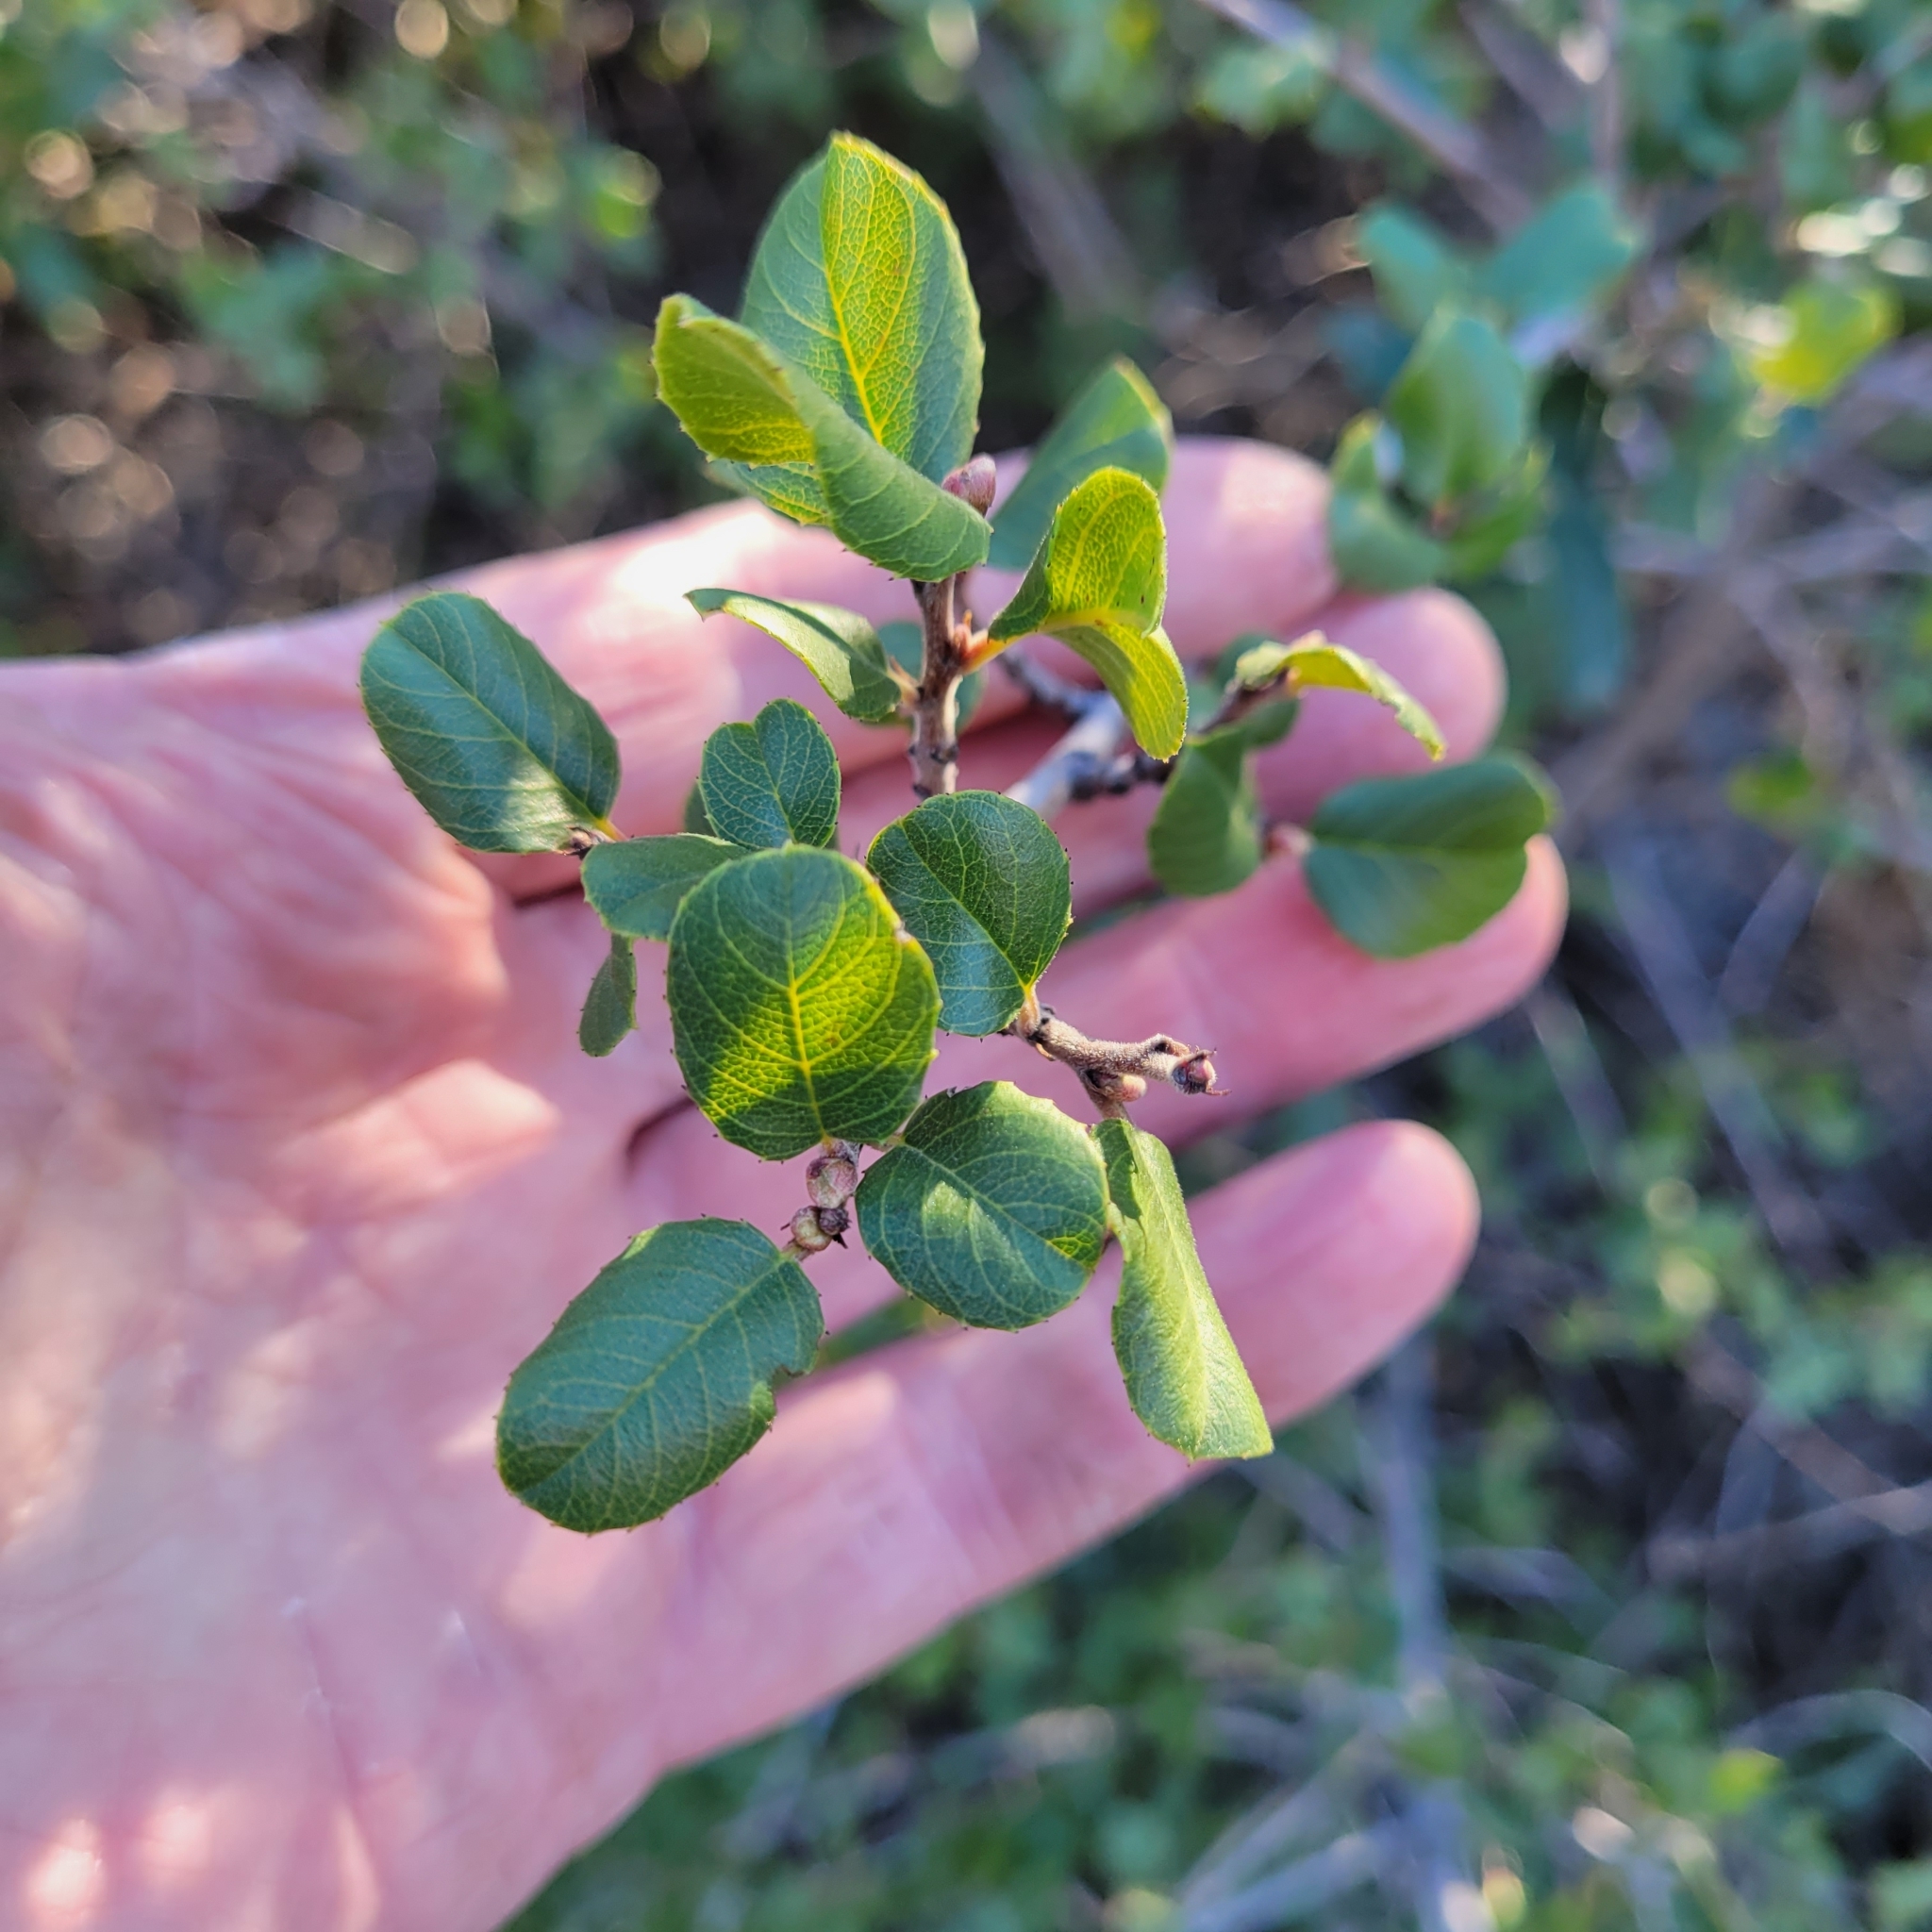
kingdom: Plantae
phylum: Tracheophyta
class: Magnoliopsida
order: Rosales
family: Rhamnaceae
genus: Endotropis
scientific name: Endotropis crocea
